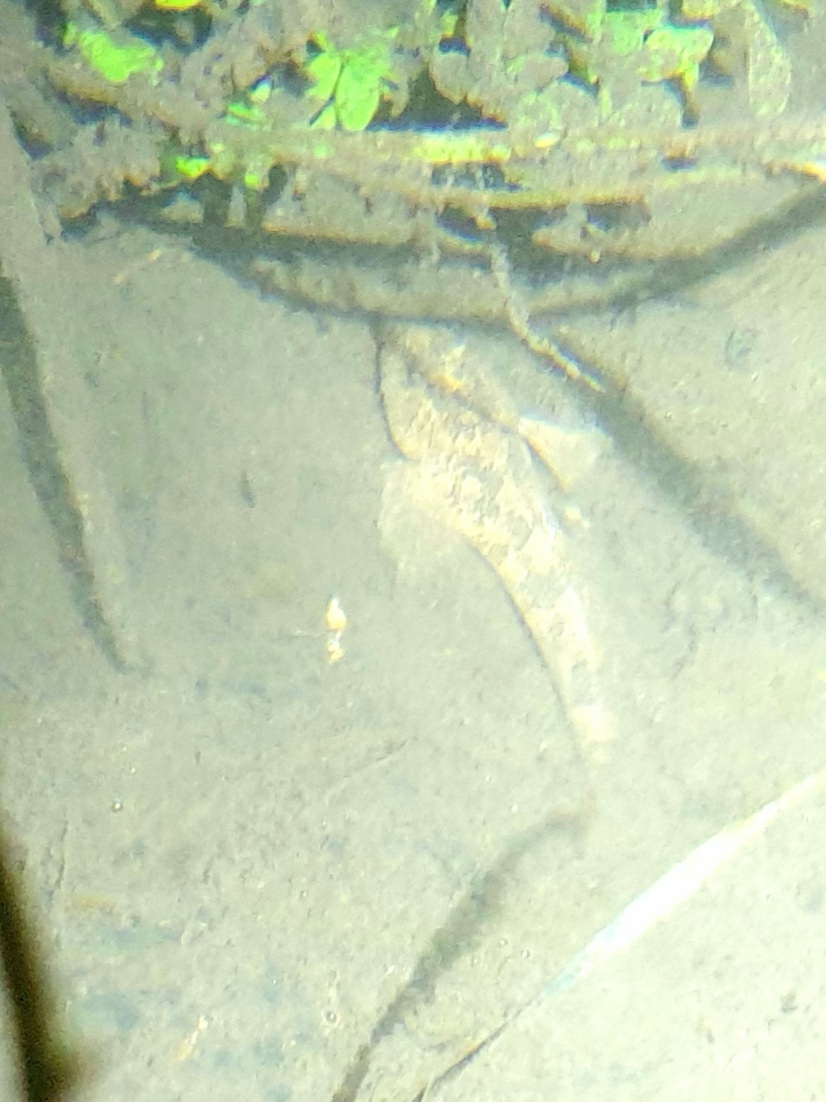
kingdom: Animalia
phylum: Chordata
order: Scorpaeniformes
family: Cottidae
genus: Cottus
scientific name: Cottus gobio
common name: Bullhead
